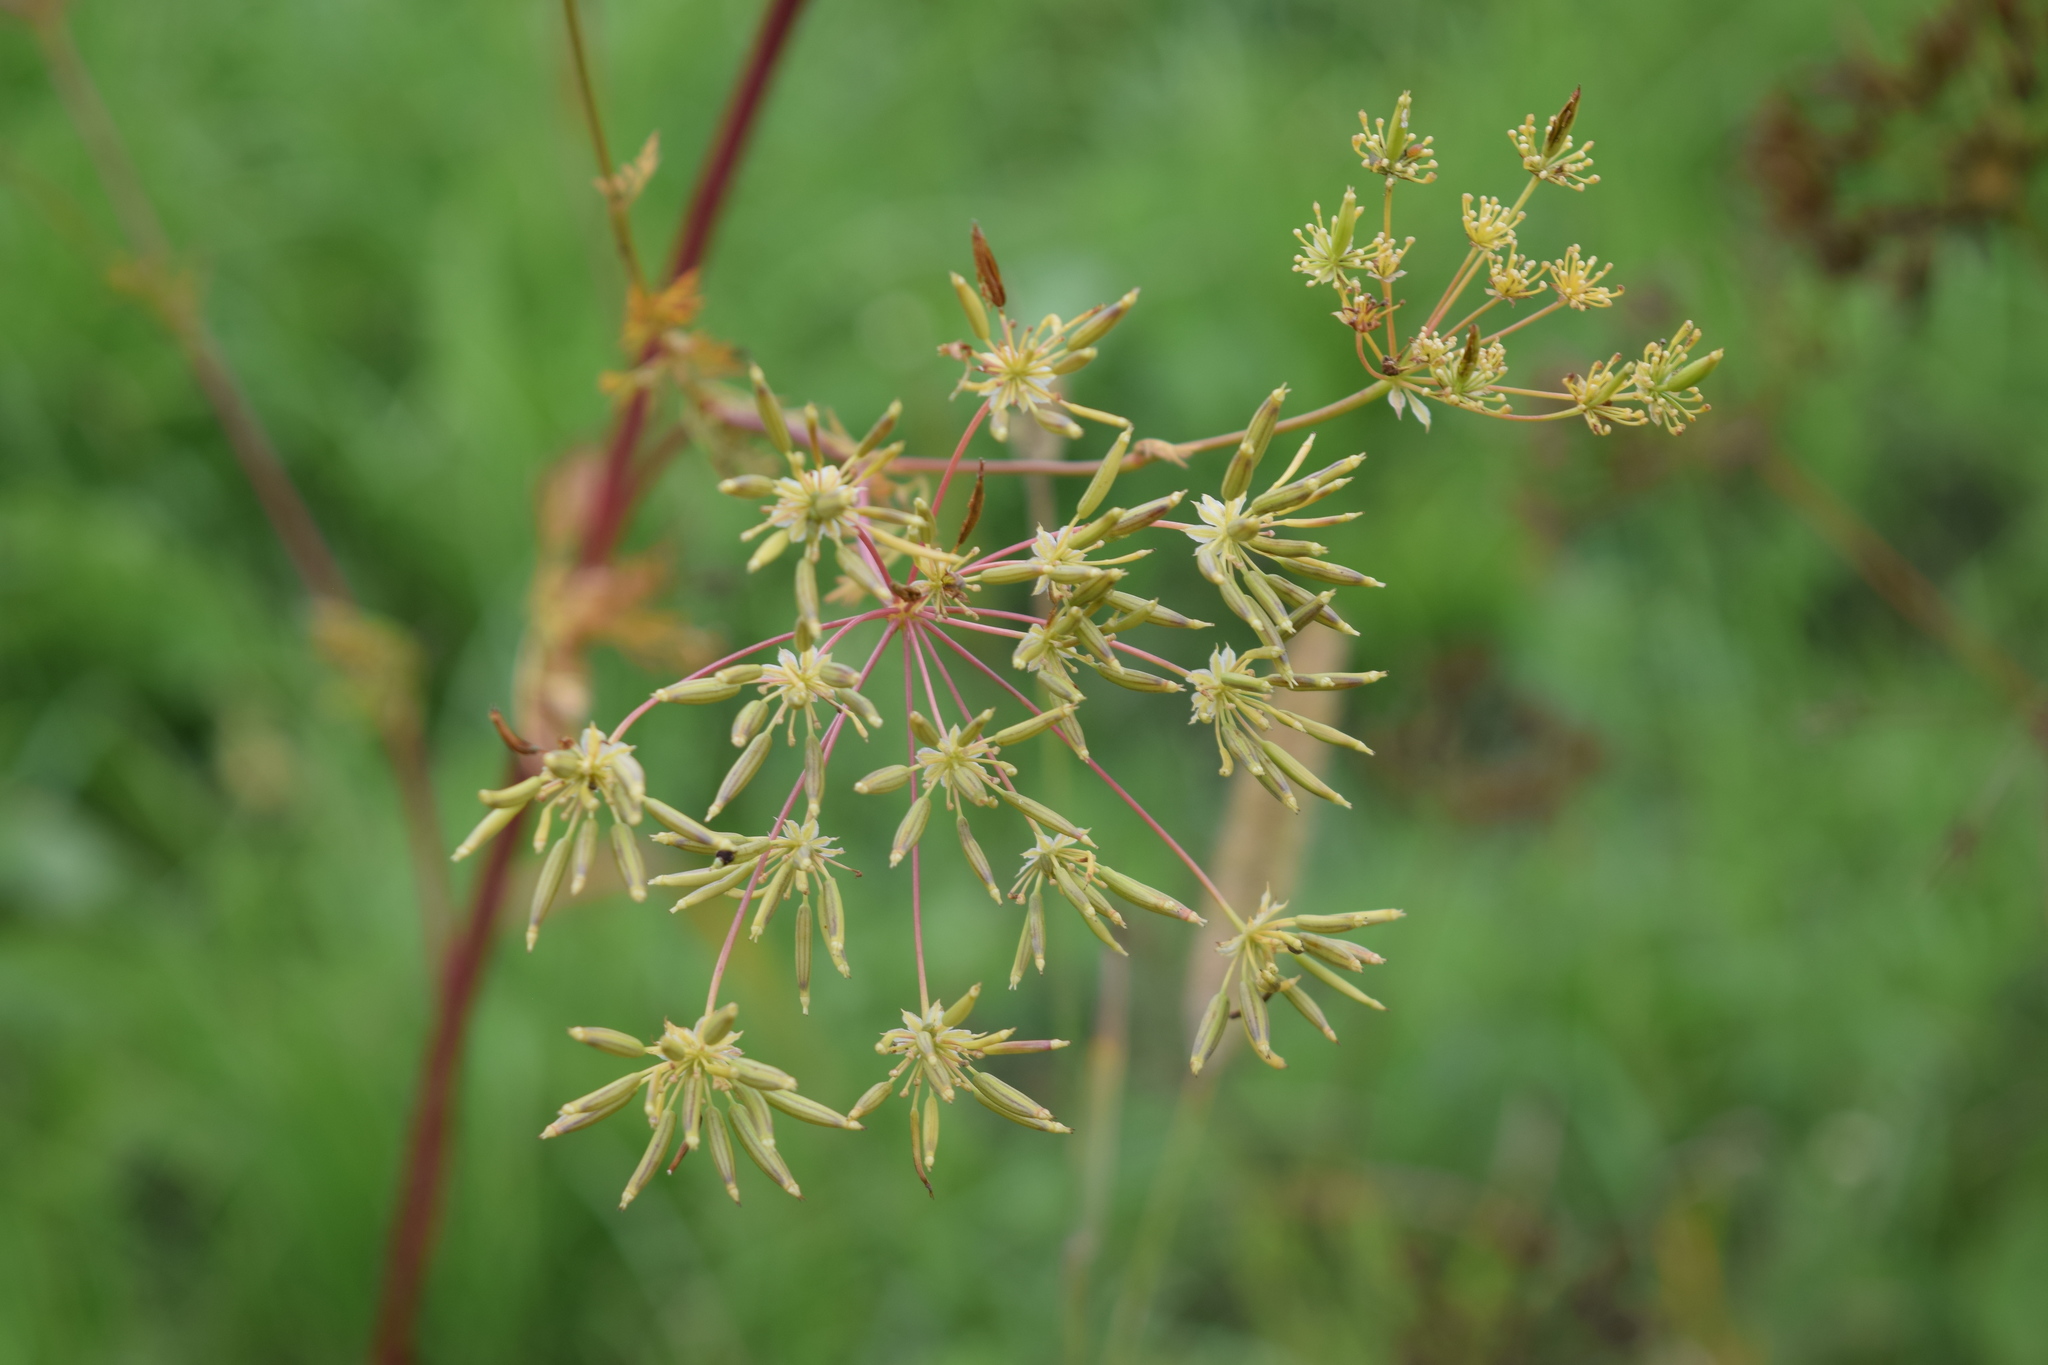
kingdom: Plantae
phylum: Tracheophyta
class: Magnoliopsida
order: Apiales
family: Apiaceae
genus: Chaerophyllum
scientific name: Chaerophyllum prescottii
